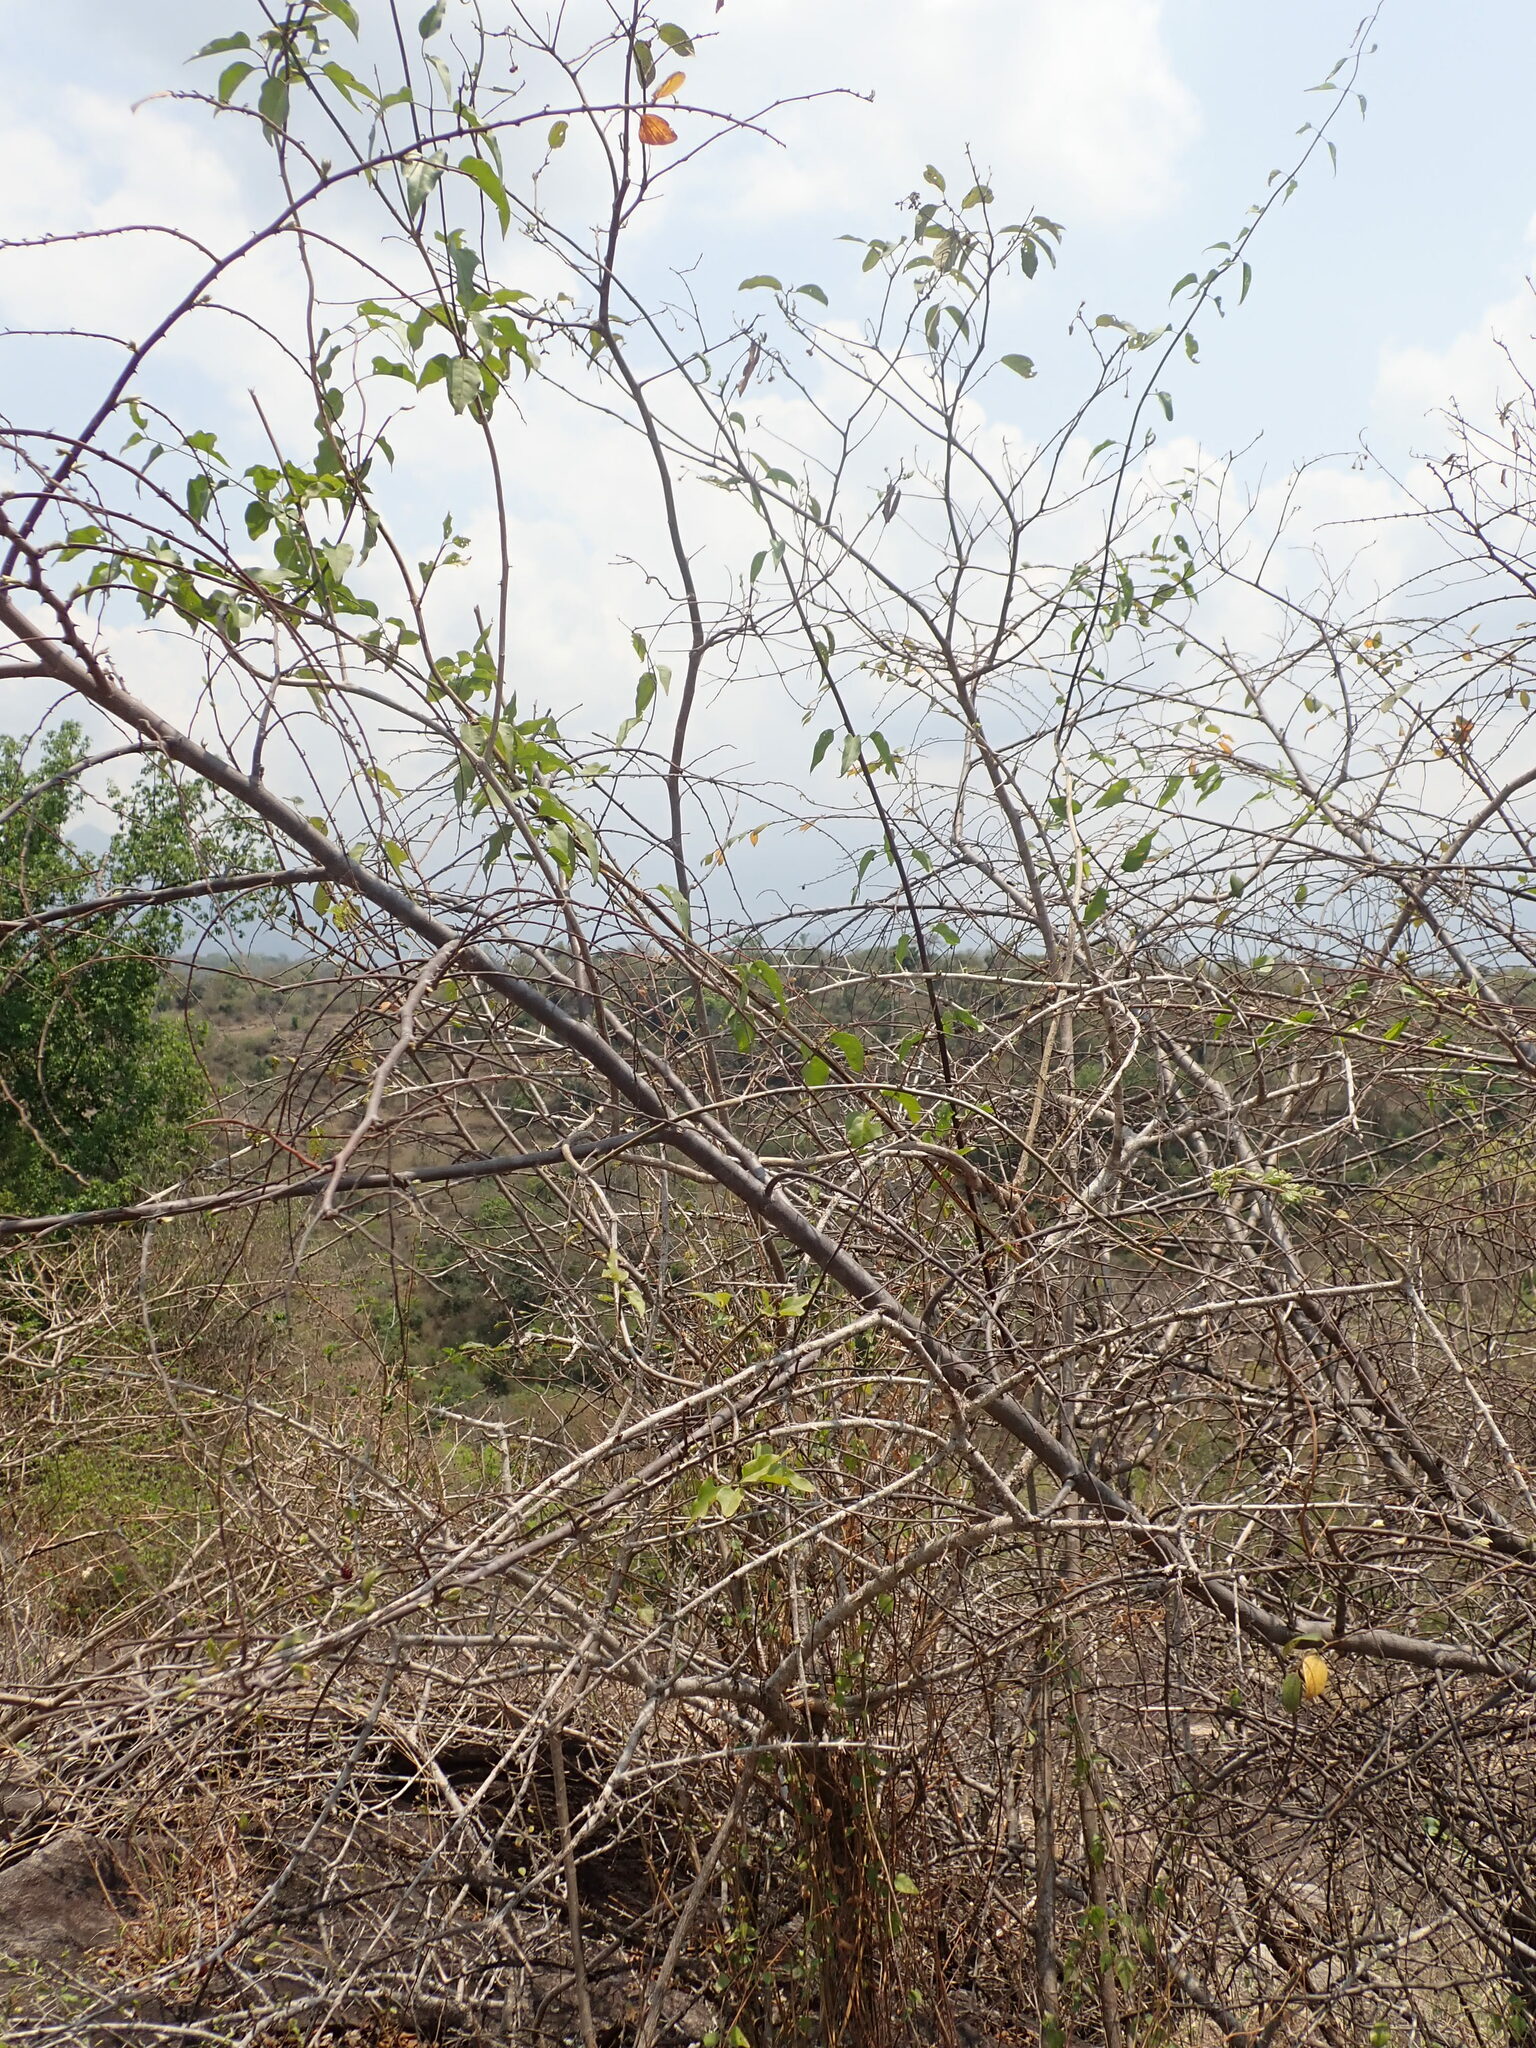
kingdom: Plantae
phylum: Tracheophyta
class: Magnoliopsida
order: Rosales
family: Rhamnaceae
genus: Ziziphus
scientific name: Ziziphus oenopolia
